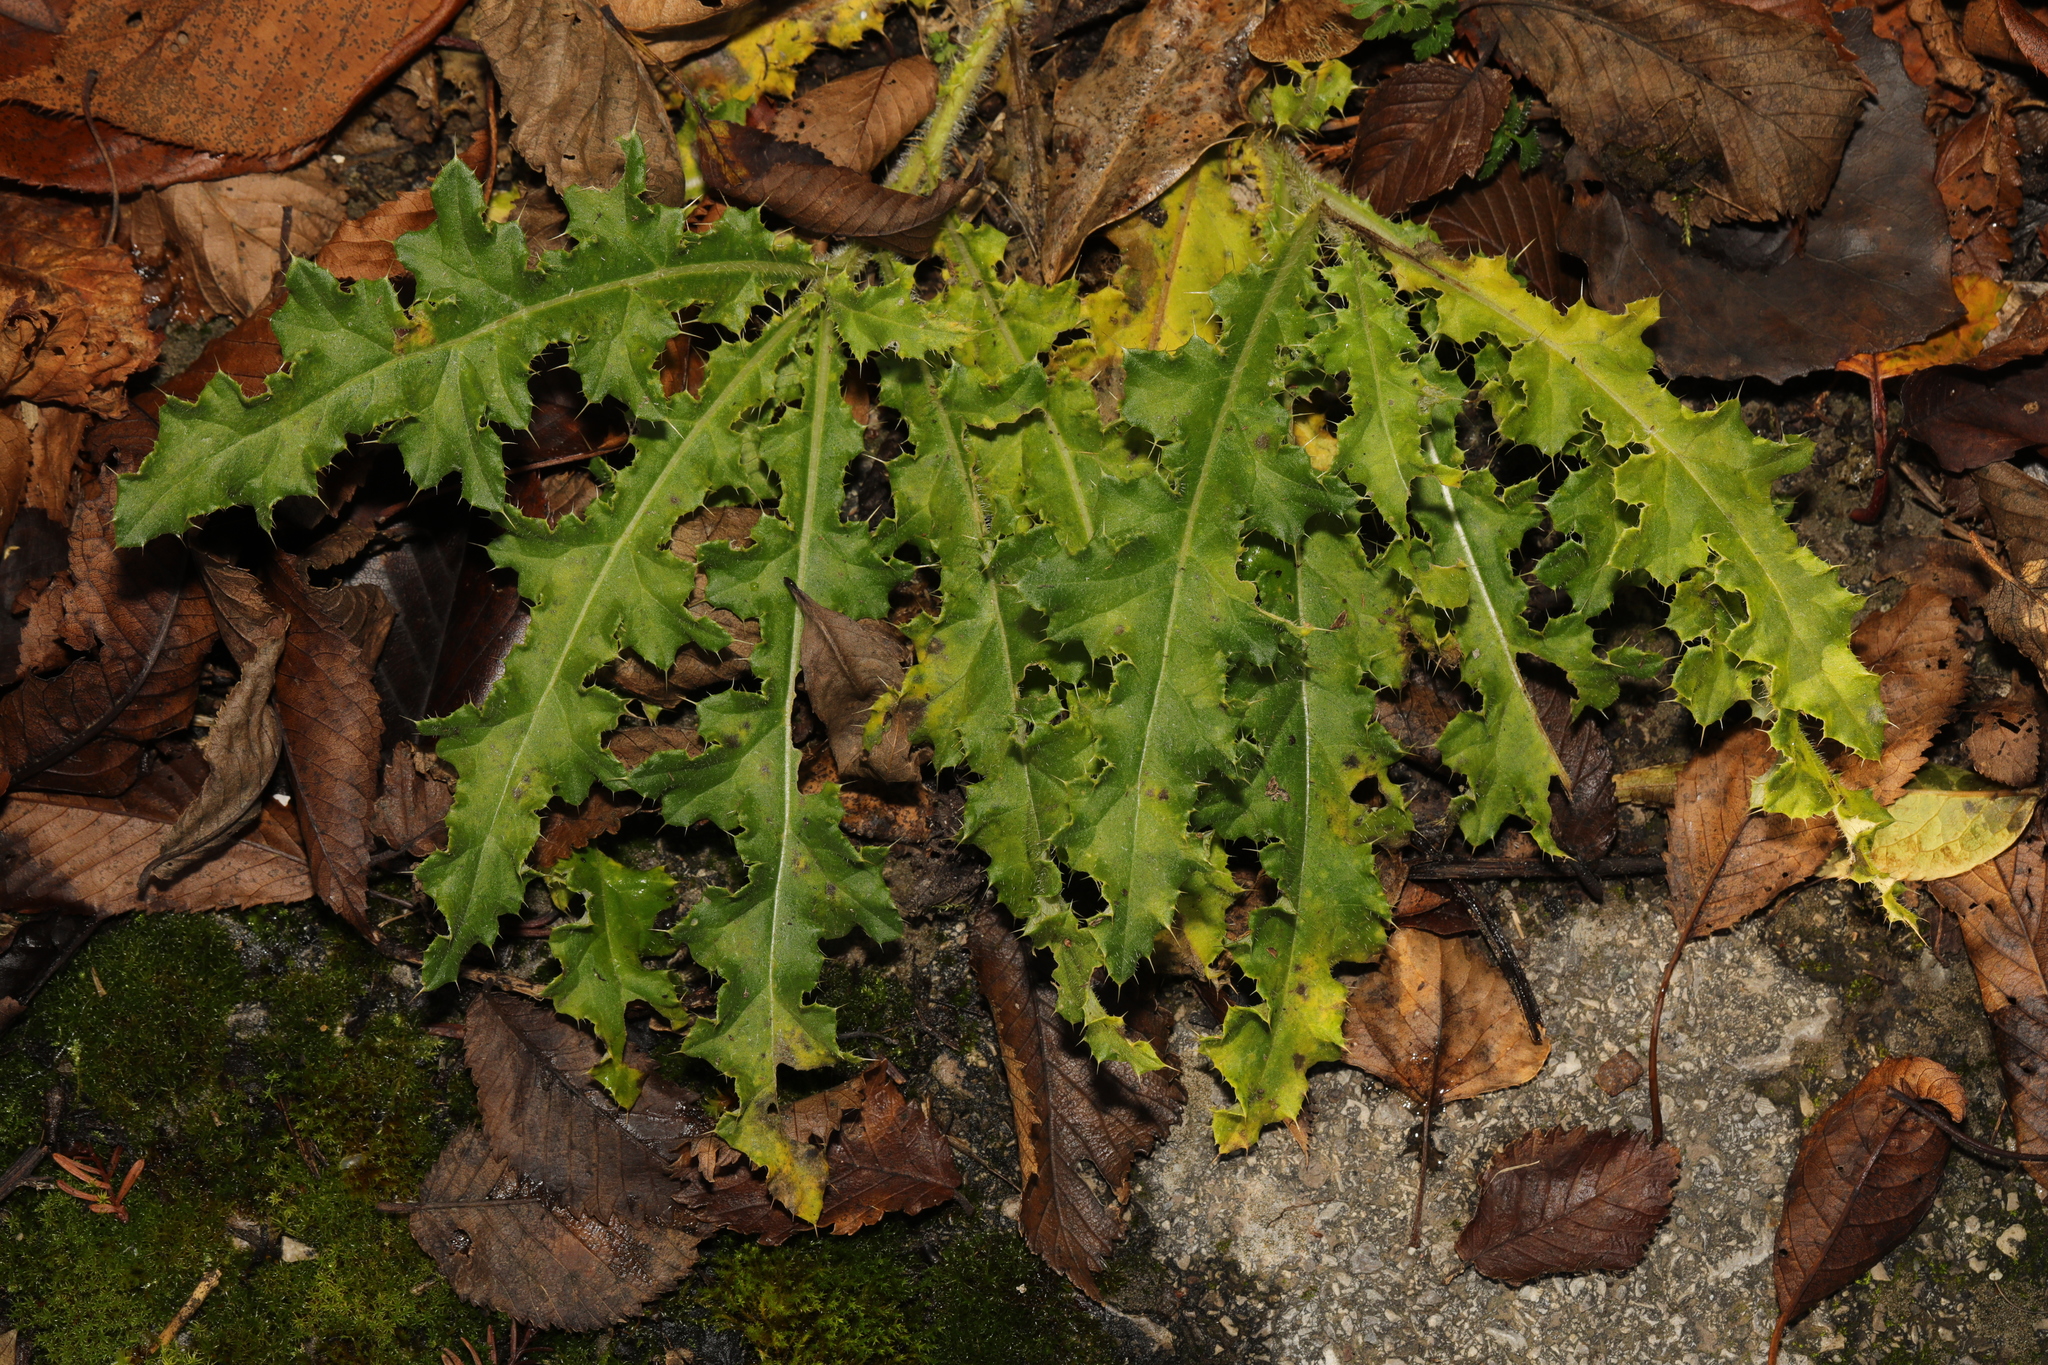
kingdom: Plantae
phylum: Tracheophyta
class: Magnoliopsida
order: Asterales
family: Asteraceae
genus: Cirsium
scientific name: Cirsium arvense
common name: Creeping thistle
